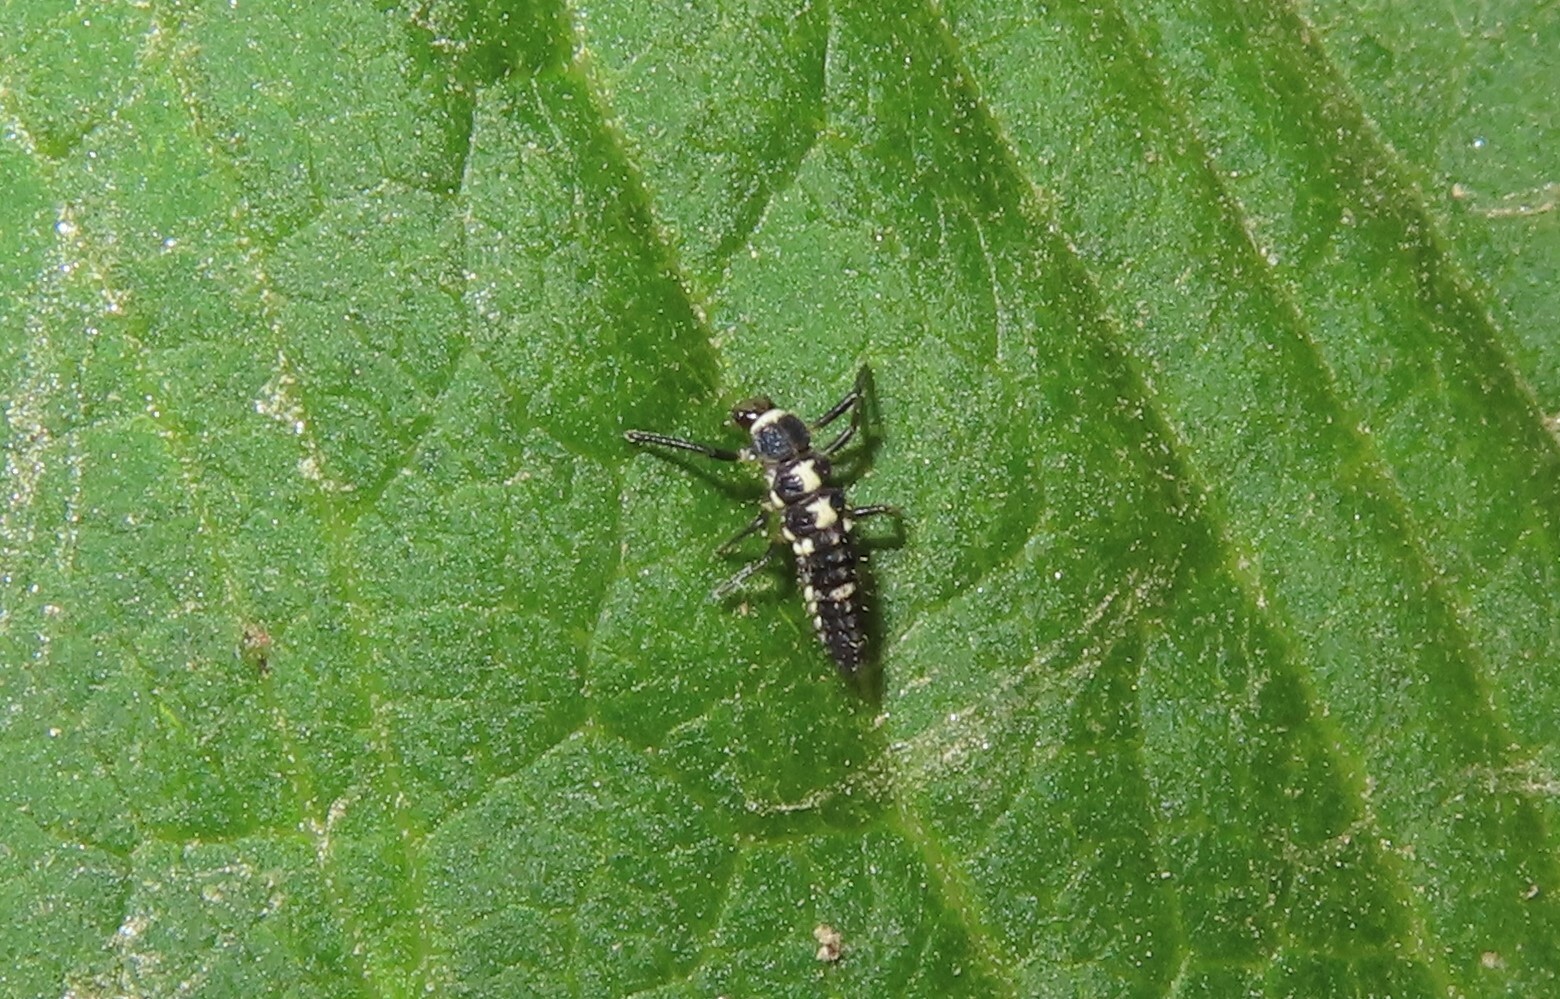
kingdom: Animalia
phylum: Arthropoda
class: Insecta
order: Coleoptera
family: Coccinellidae
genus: Propylaea
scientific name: Propylaea quatuordecimpunctata
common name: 14-spotted ladybird beetle
